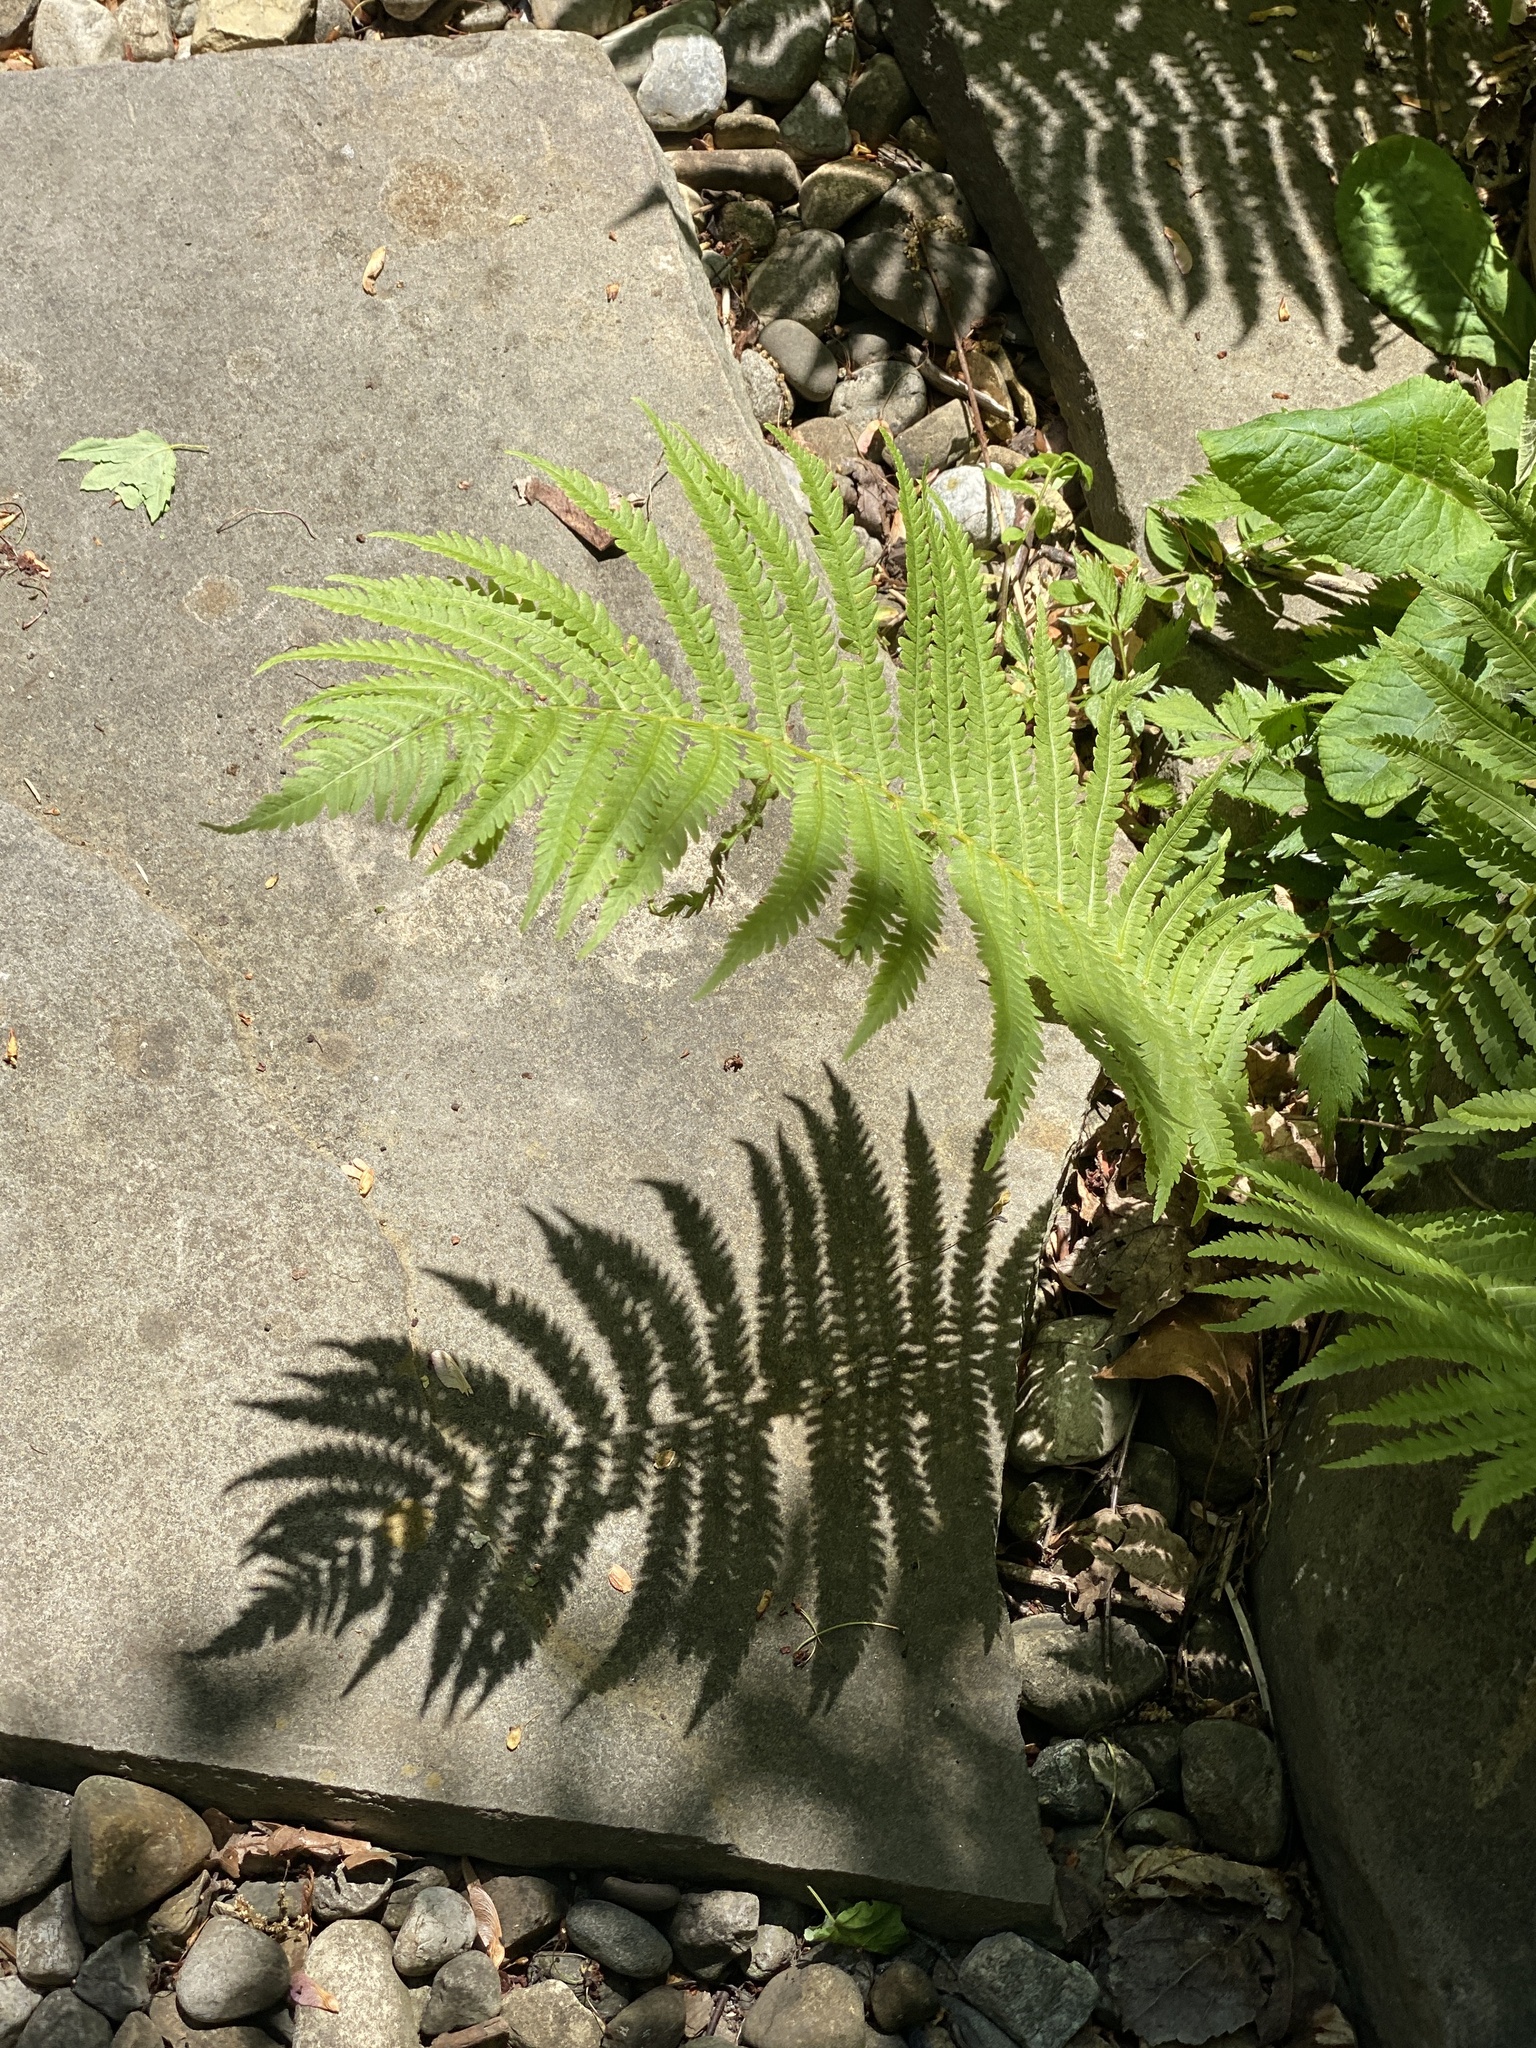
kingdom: Plantae
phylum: Tracheophyta
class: Polypodiopsida
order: Polypodiales
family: Onocleaceae
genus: Matteuccia
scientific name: Matteuccia struthiopteris
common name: Ostrich fern
